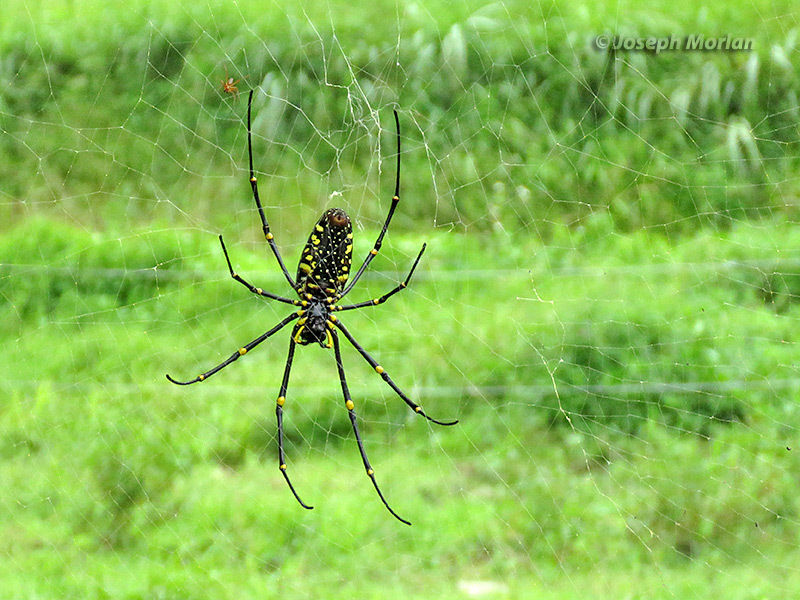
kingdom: Animalia
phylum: Arthropoda
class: Arachnida
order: Araneae
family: Araneidae
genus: Nephila
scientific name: Nephila pilipes
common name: Giant golden orb weaver
